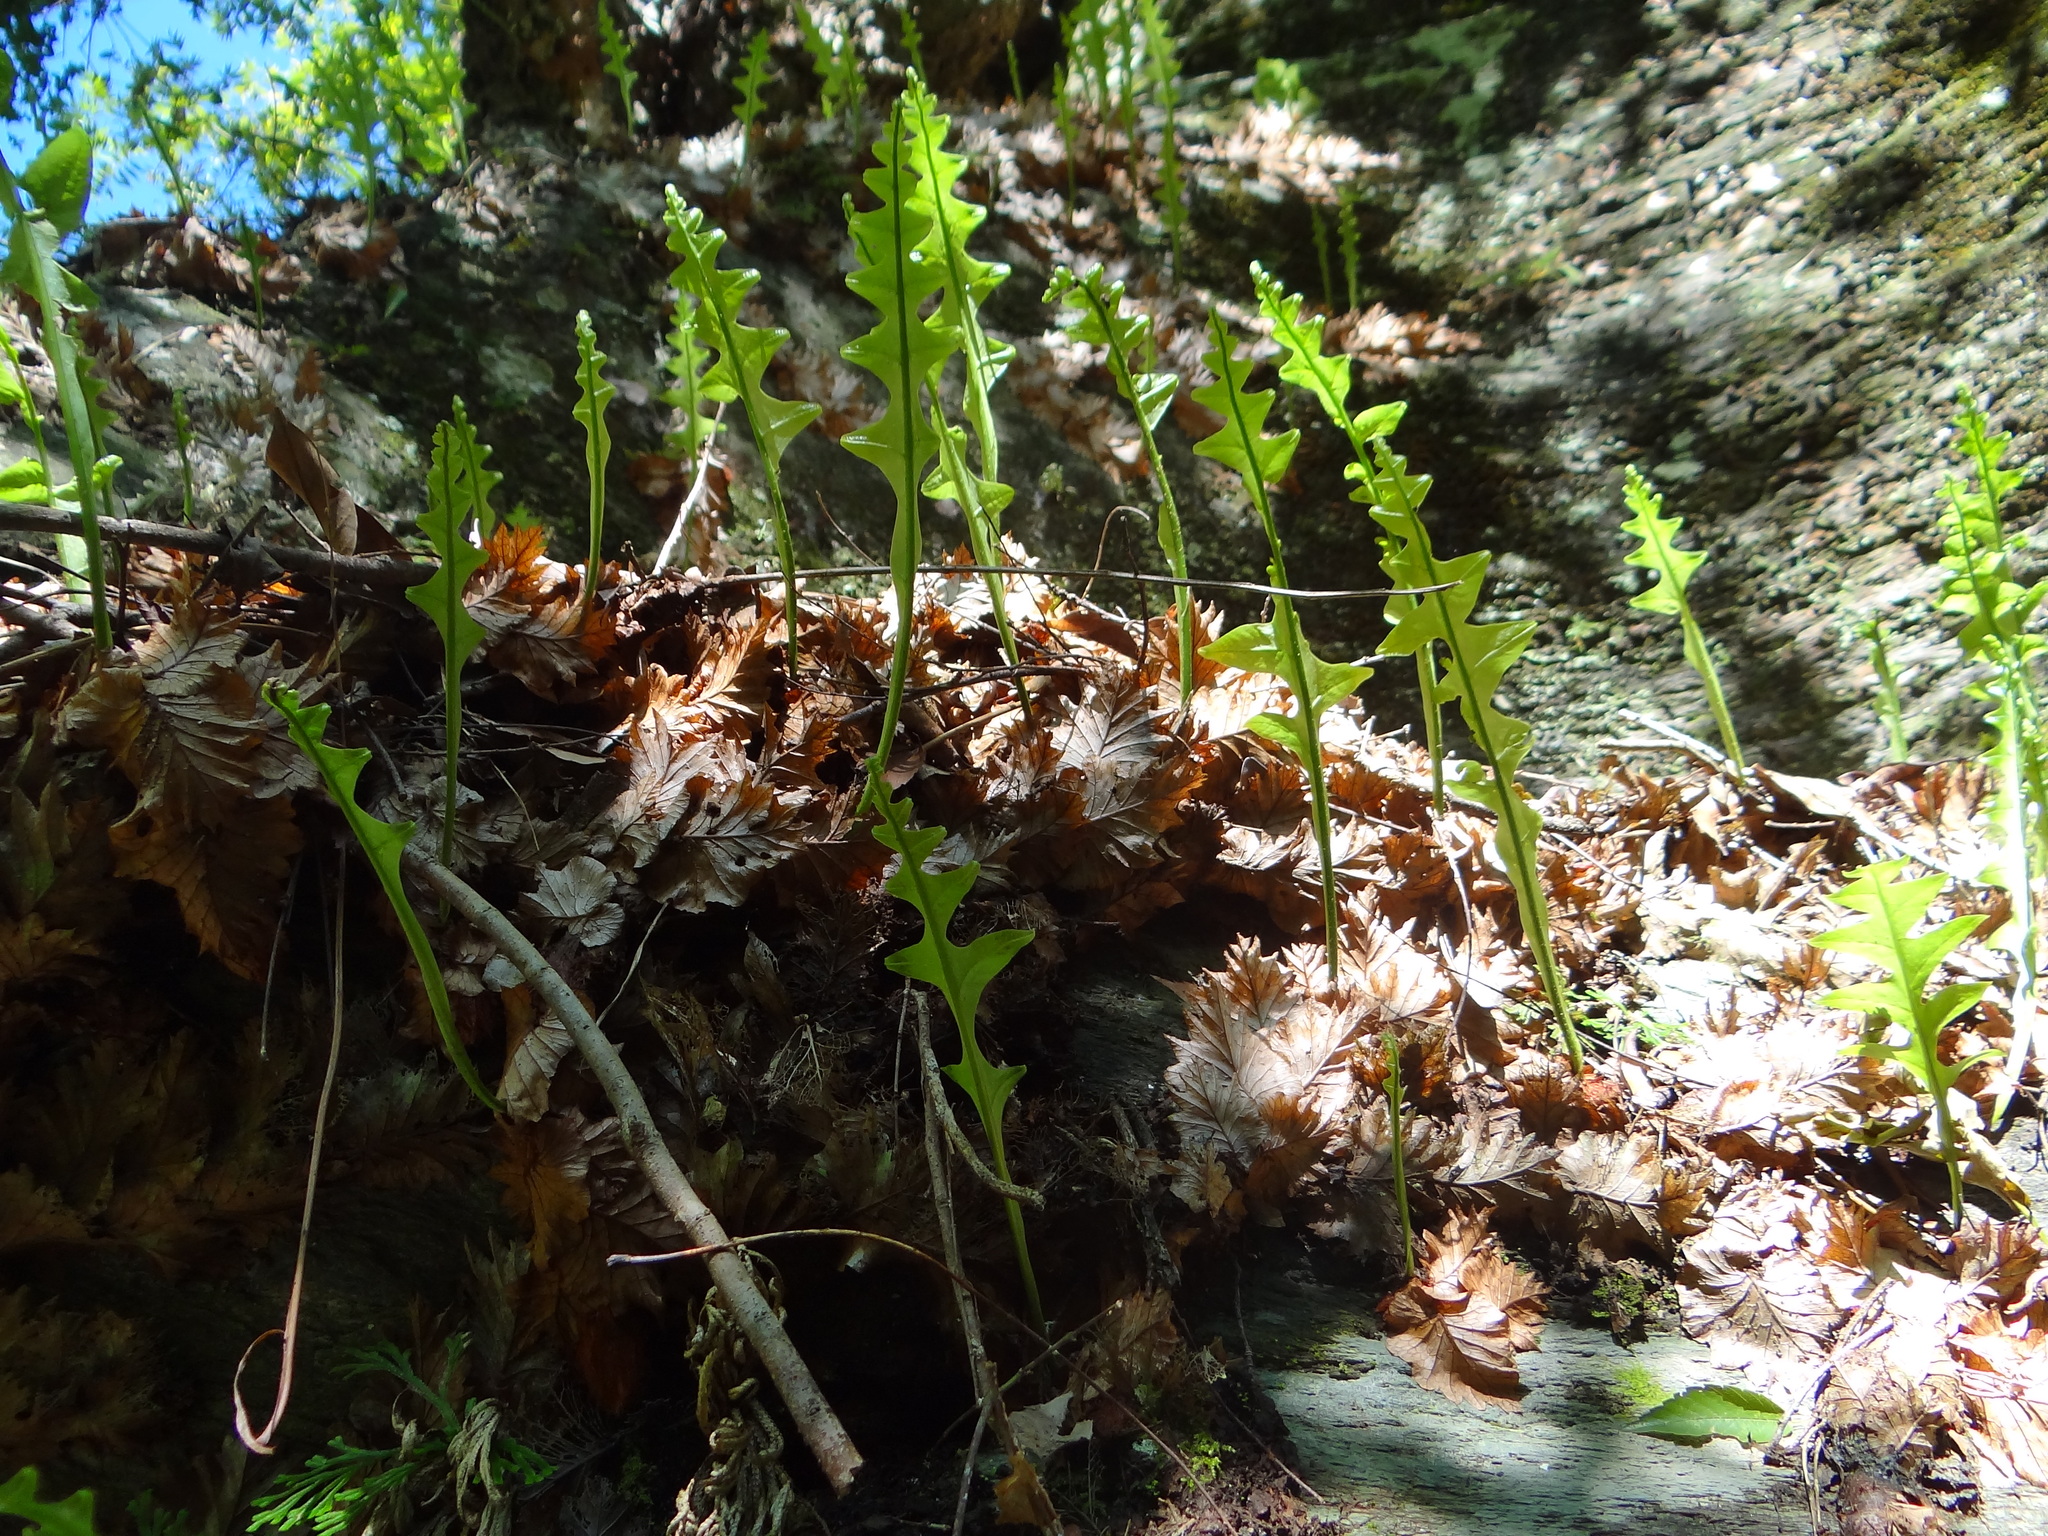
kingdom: Plantae
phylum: Tracheophyta
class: Polypodiopsida
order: Polypodiales
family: Polypodiaceae
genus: Drynaria
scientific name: Drynaria roosii
